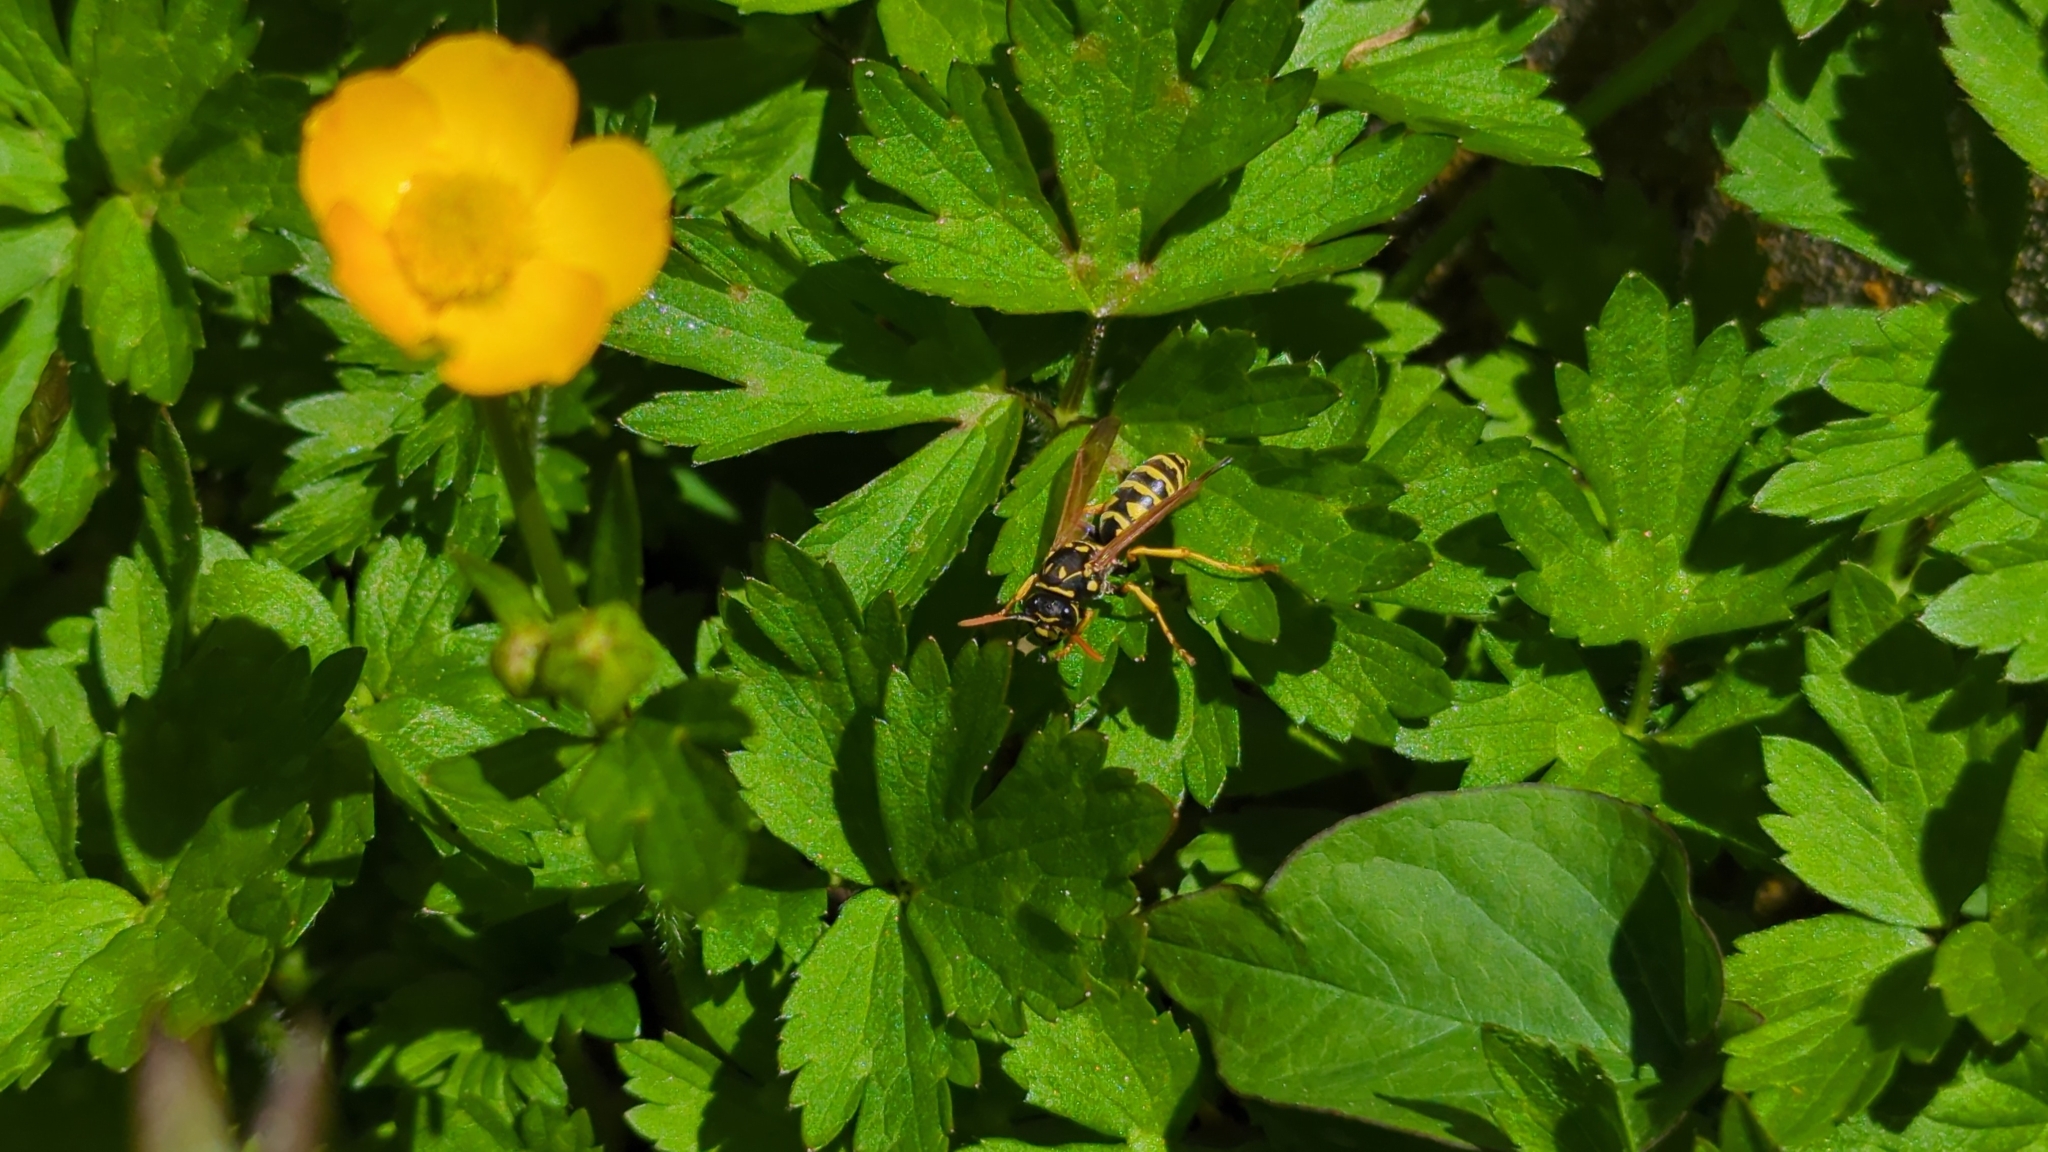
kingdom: Animalia
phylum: Arthropoda
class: Insecta
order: Hymenoptera
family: Eumenidae
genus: Polistes
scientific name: Polistes dominula
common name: Paper wasp
